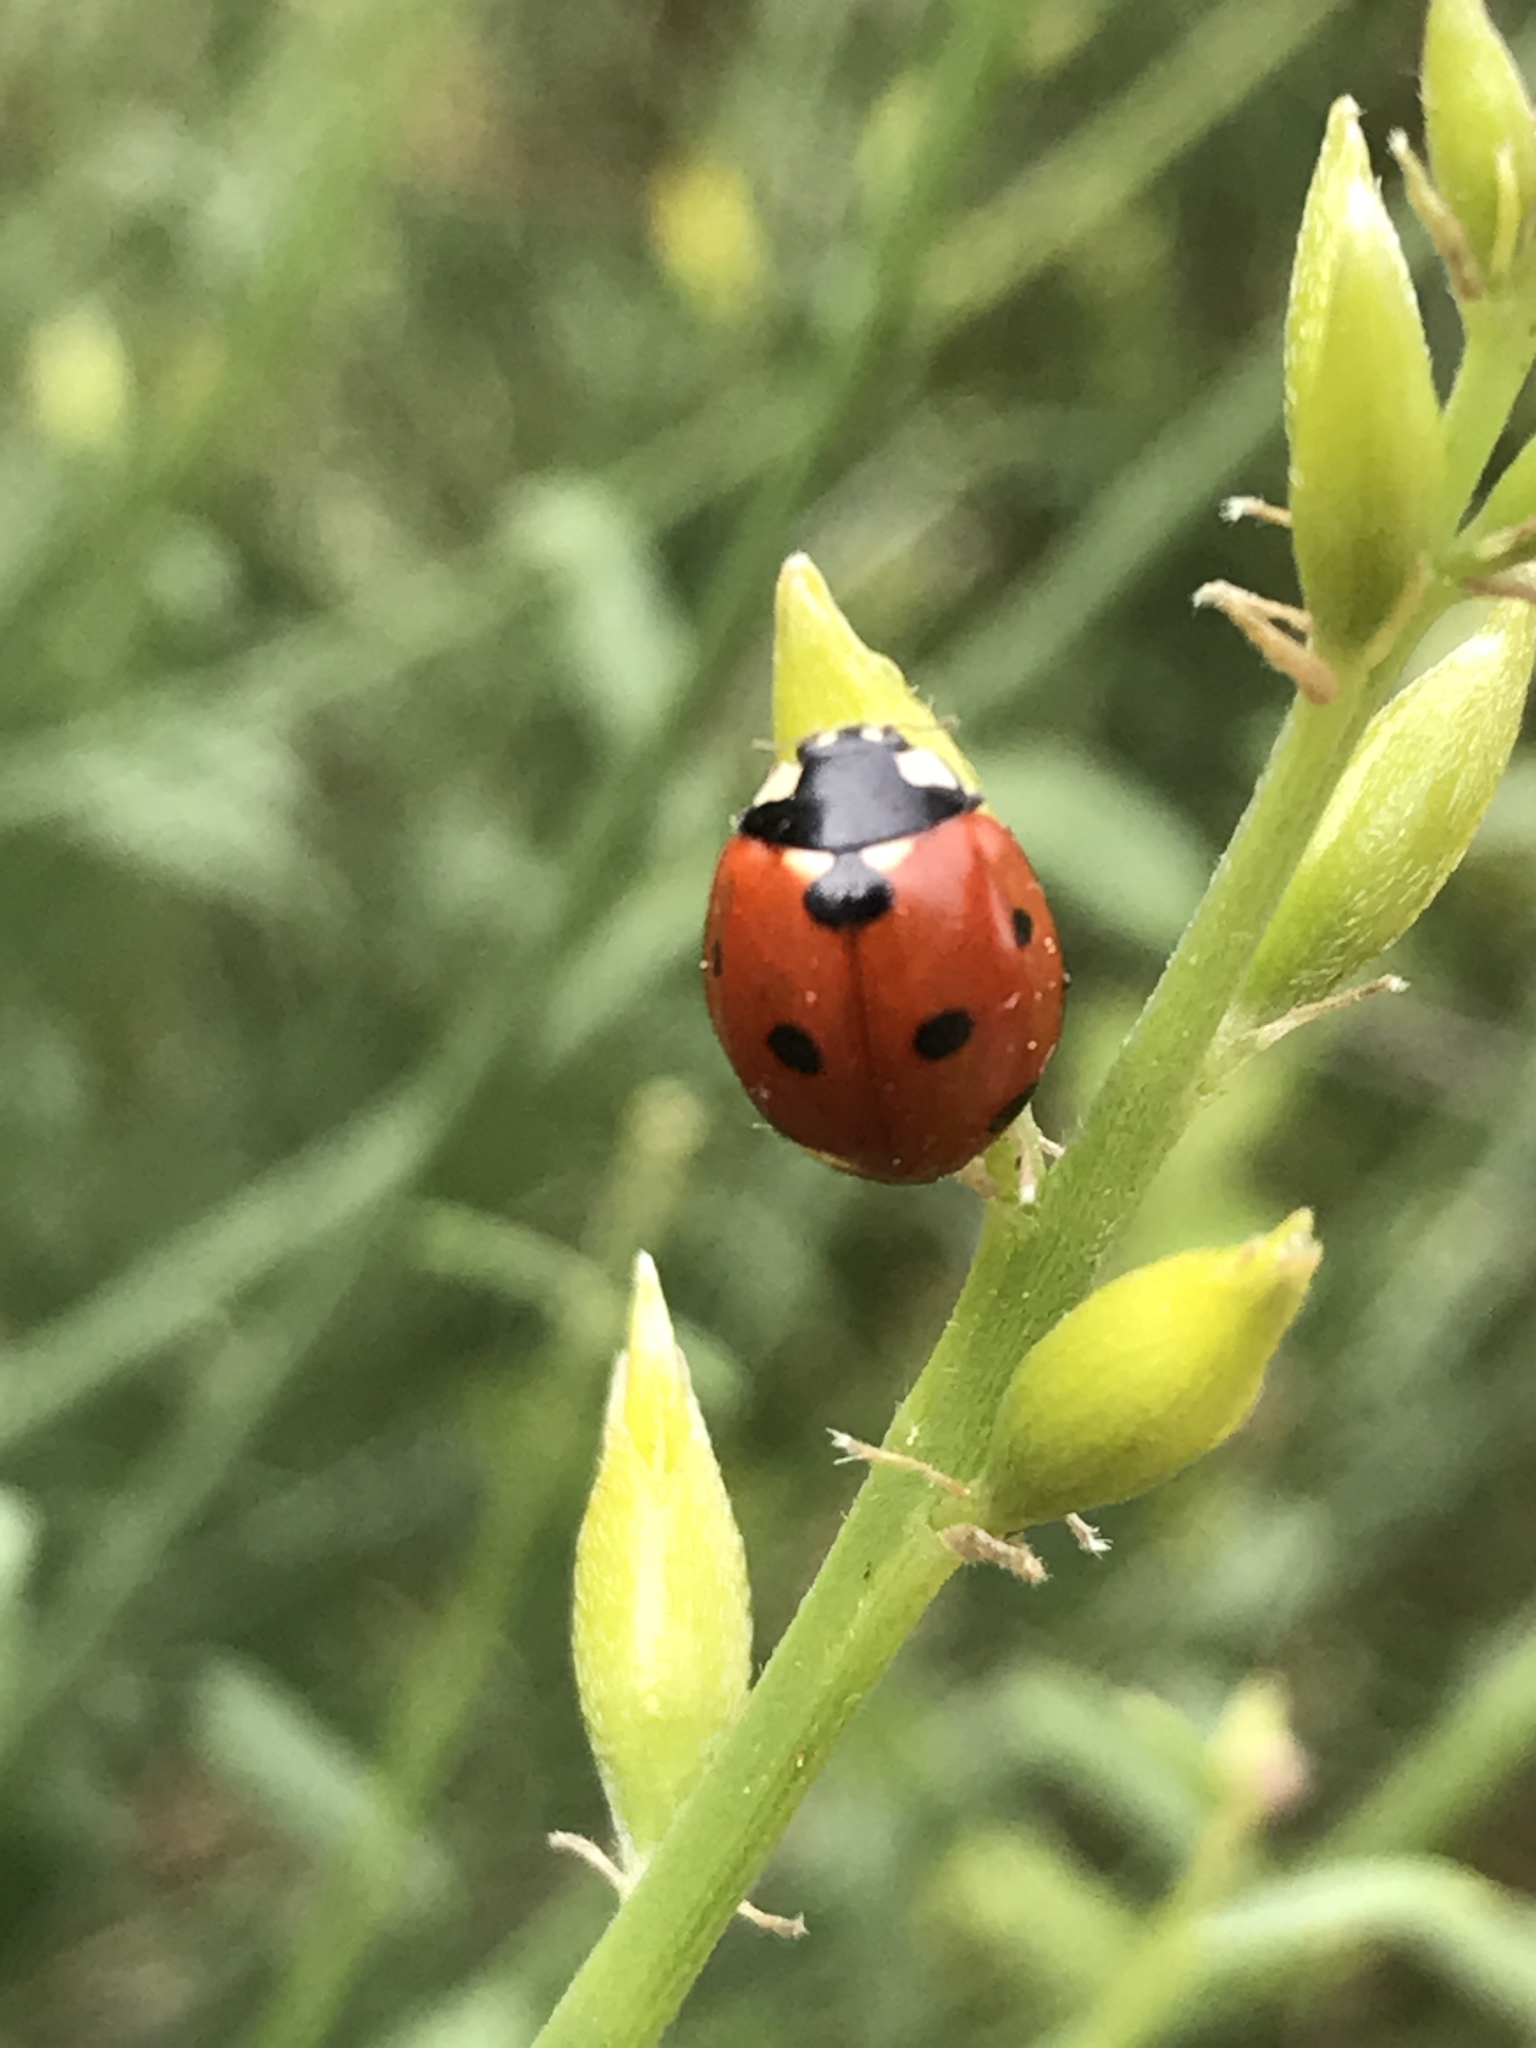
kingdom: Animalia
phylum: Arthropoda
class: Insecta
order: Coleoptera
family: Coccinellidae
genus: Coccinella
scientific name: Coccinella septempunctata
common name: Sevenspotted lady beetle
